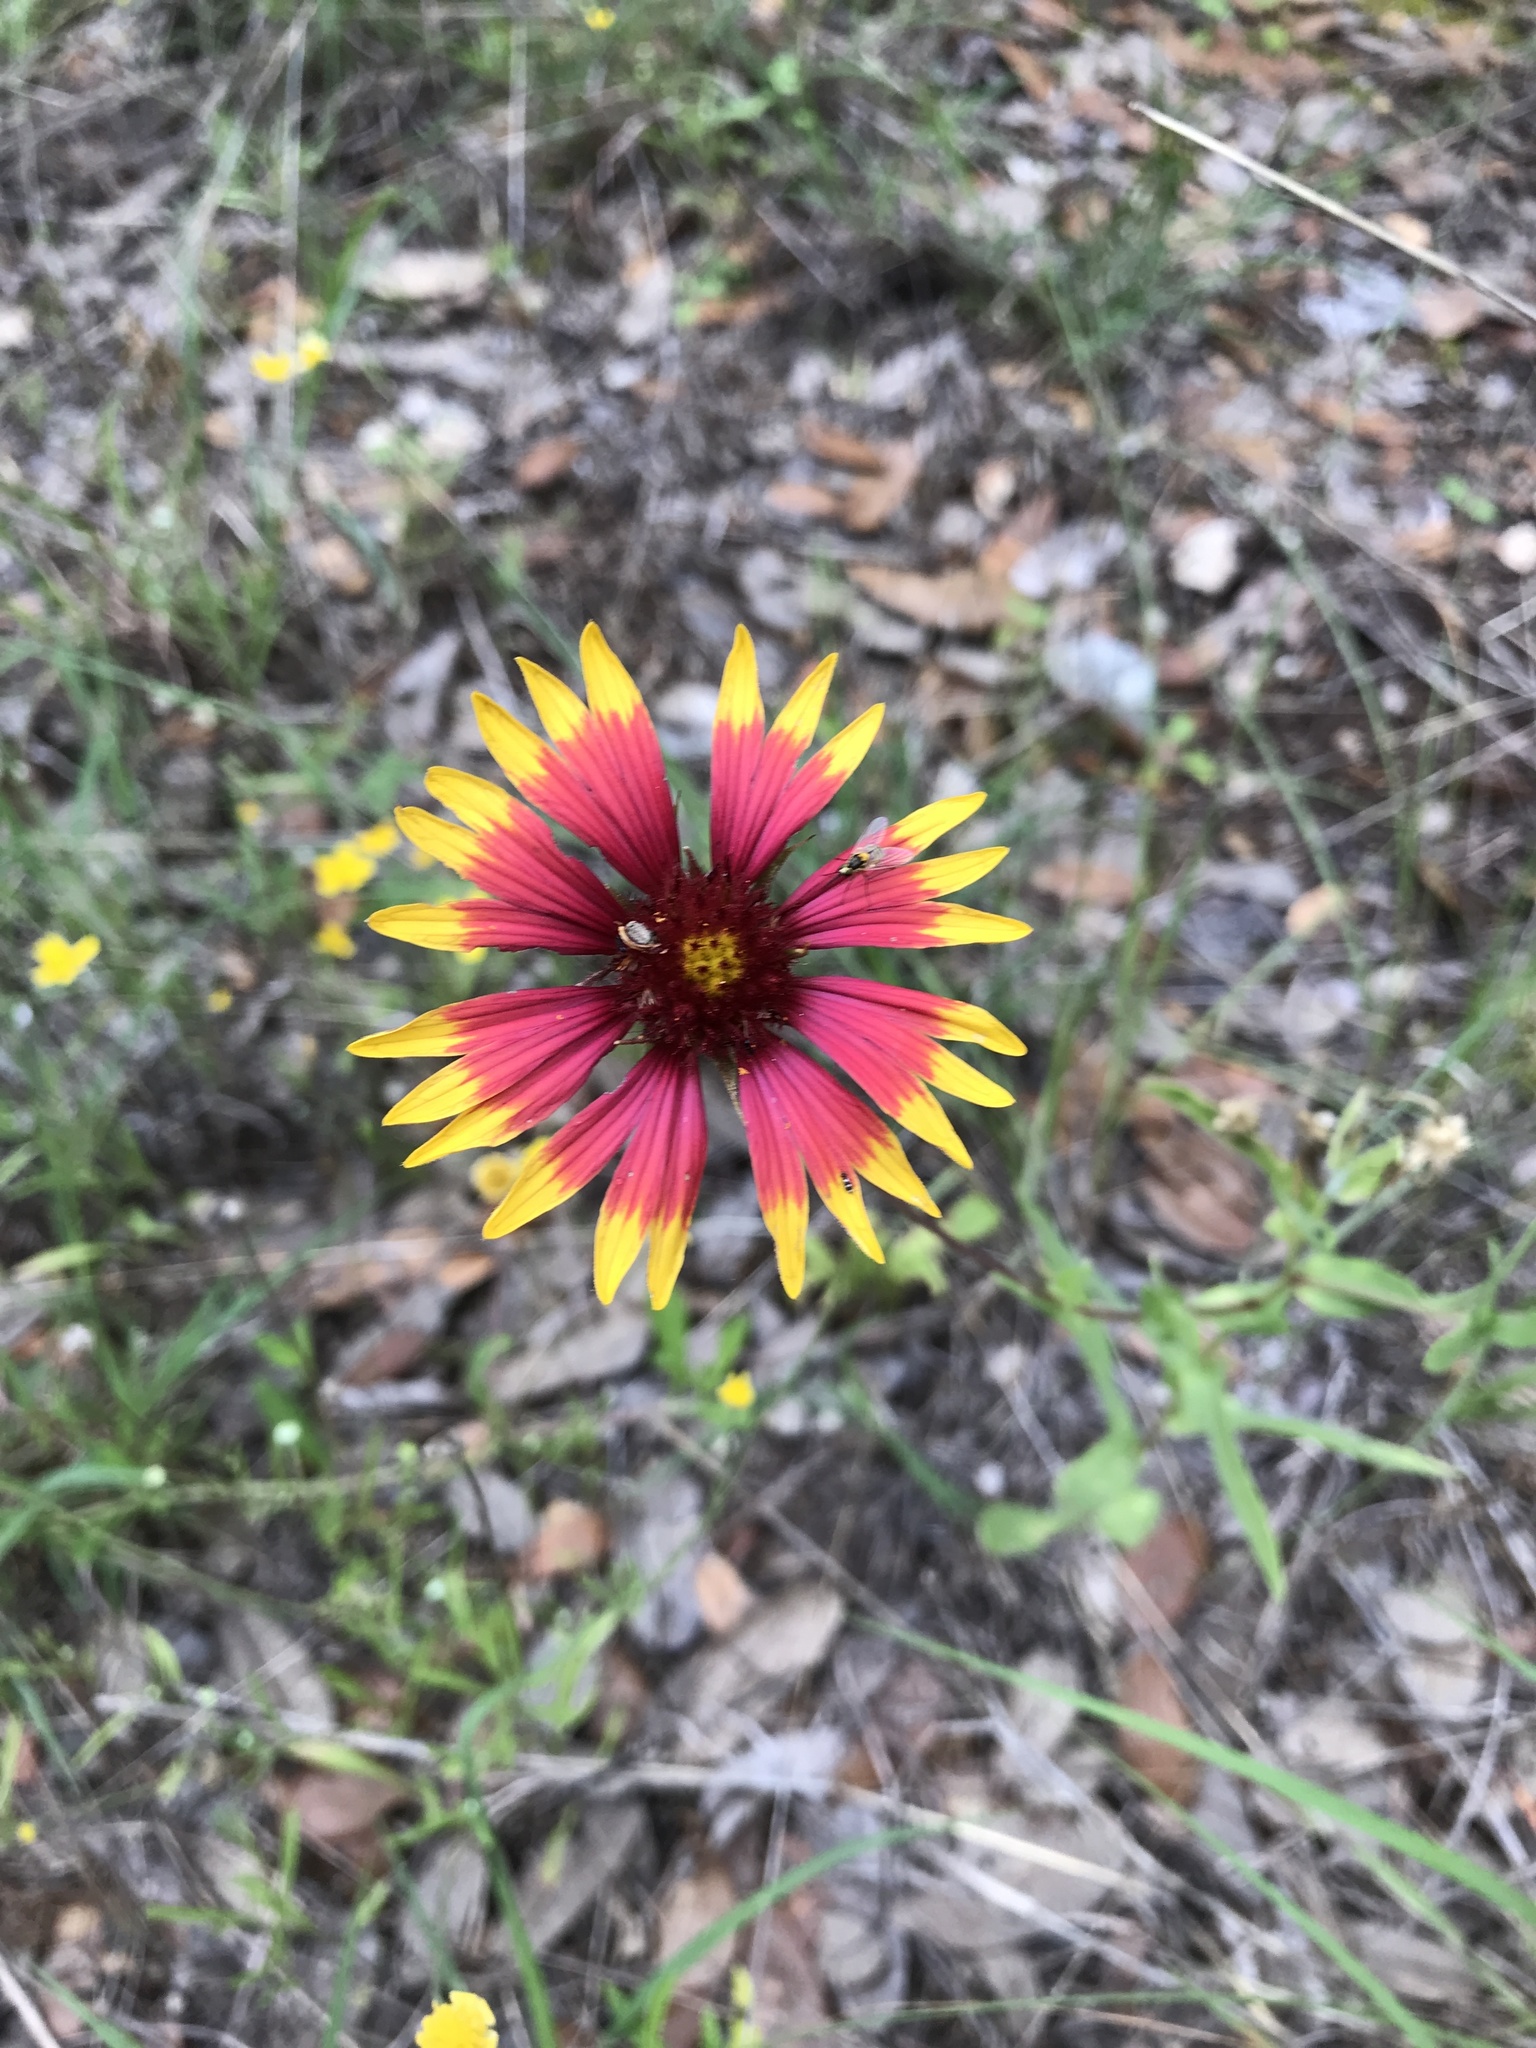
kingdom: Plantae
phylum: Tracheophyta
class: Magnoliopsida
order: Asterales
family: Asteraceae
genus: Gaillardia
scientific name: Gaillardia pulchella
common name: Firewheel
